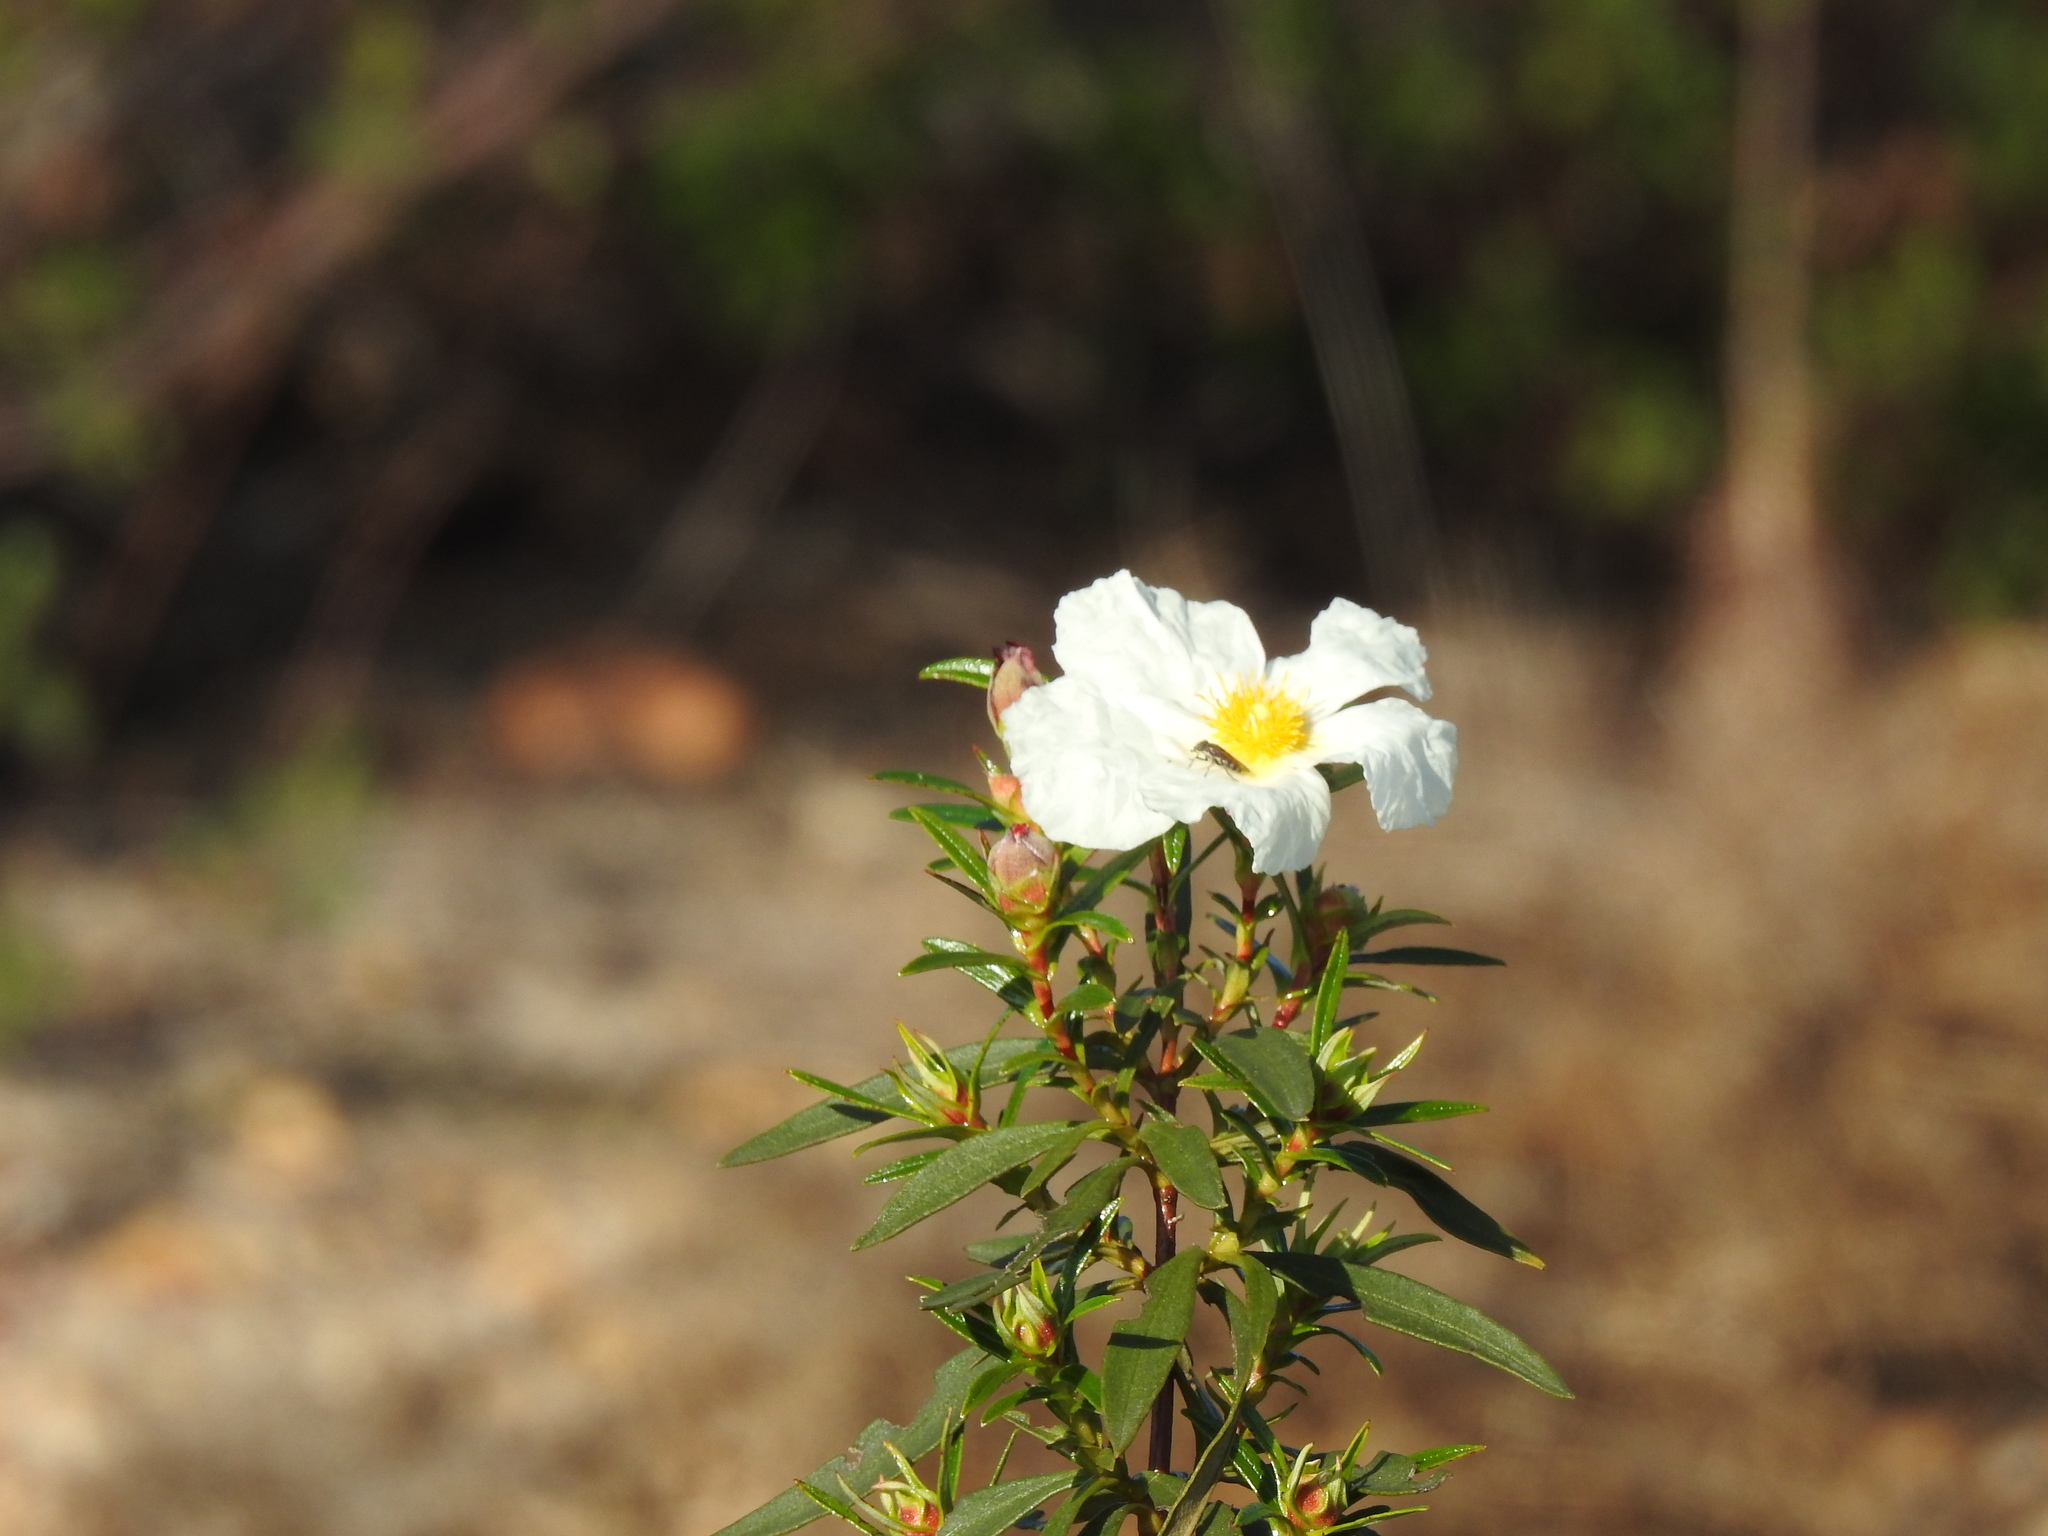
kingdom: Plantae
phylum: Tracheophyta
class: Magnoliopsida
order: Malvales
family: Cistaceae
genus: Cistus
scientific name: Cistus ladanifer
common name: Common gum cistus
